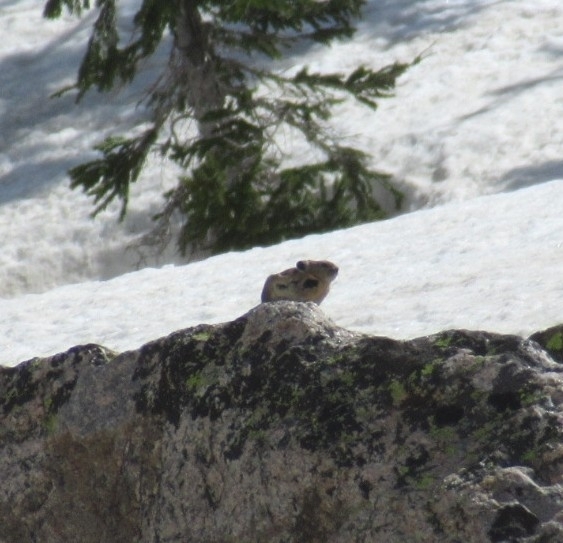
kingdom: Animalia
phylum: Chordata
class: Mammalia
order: Lagomorpha
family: Ochotonidae
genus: Ochotona
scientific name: Ochotona princeps
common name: American pika
